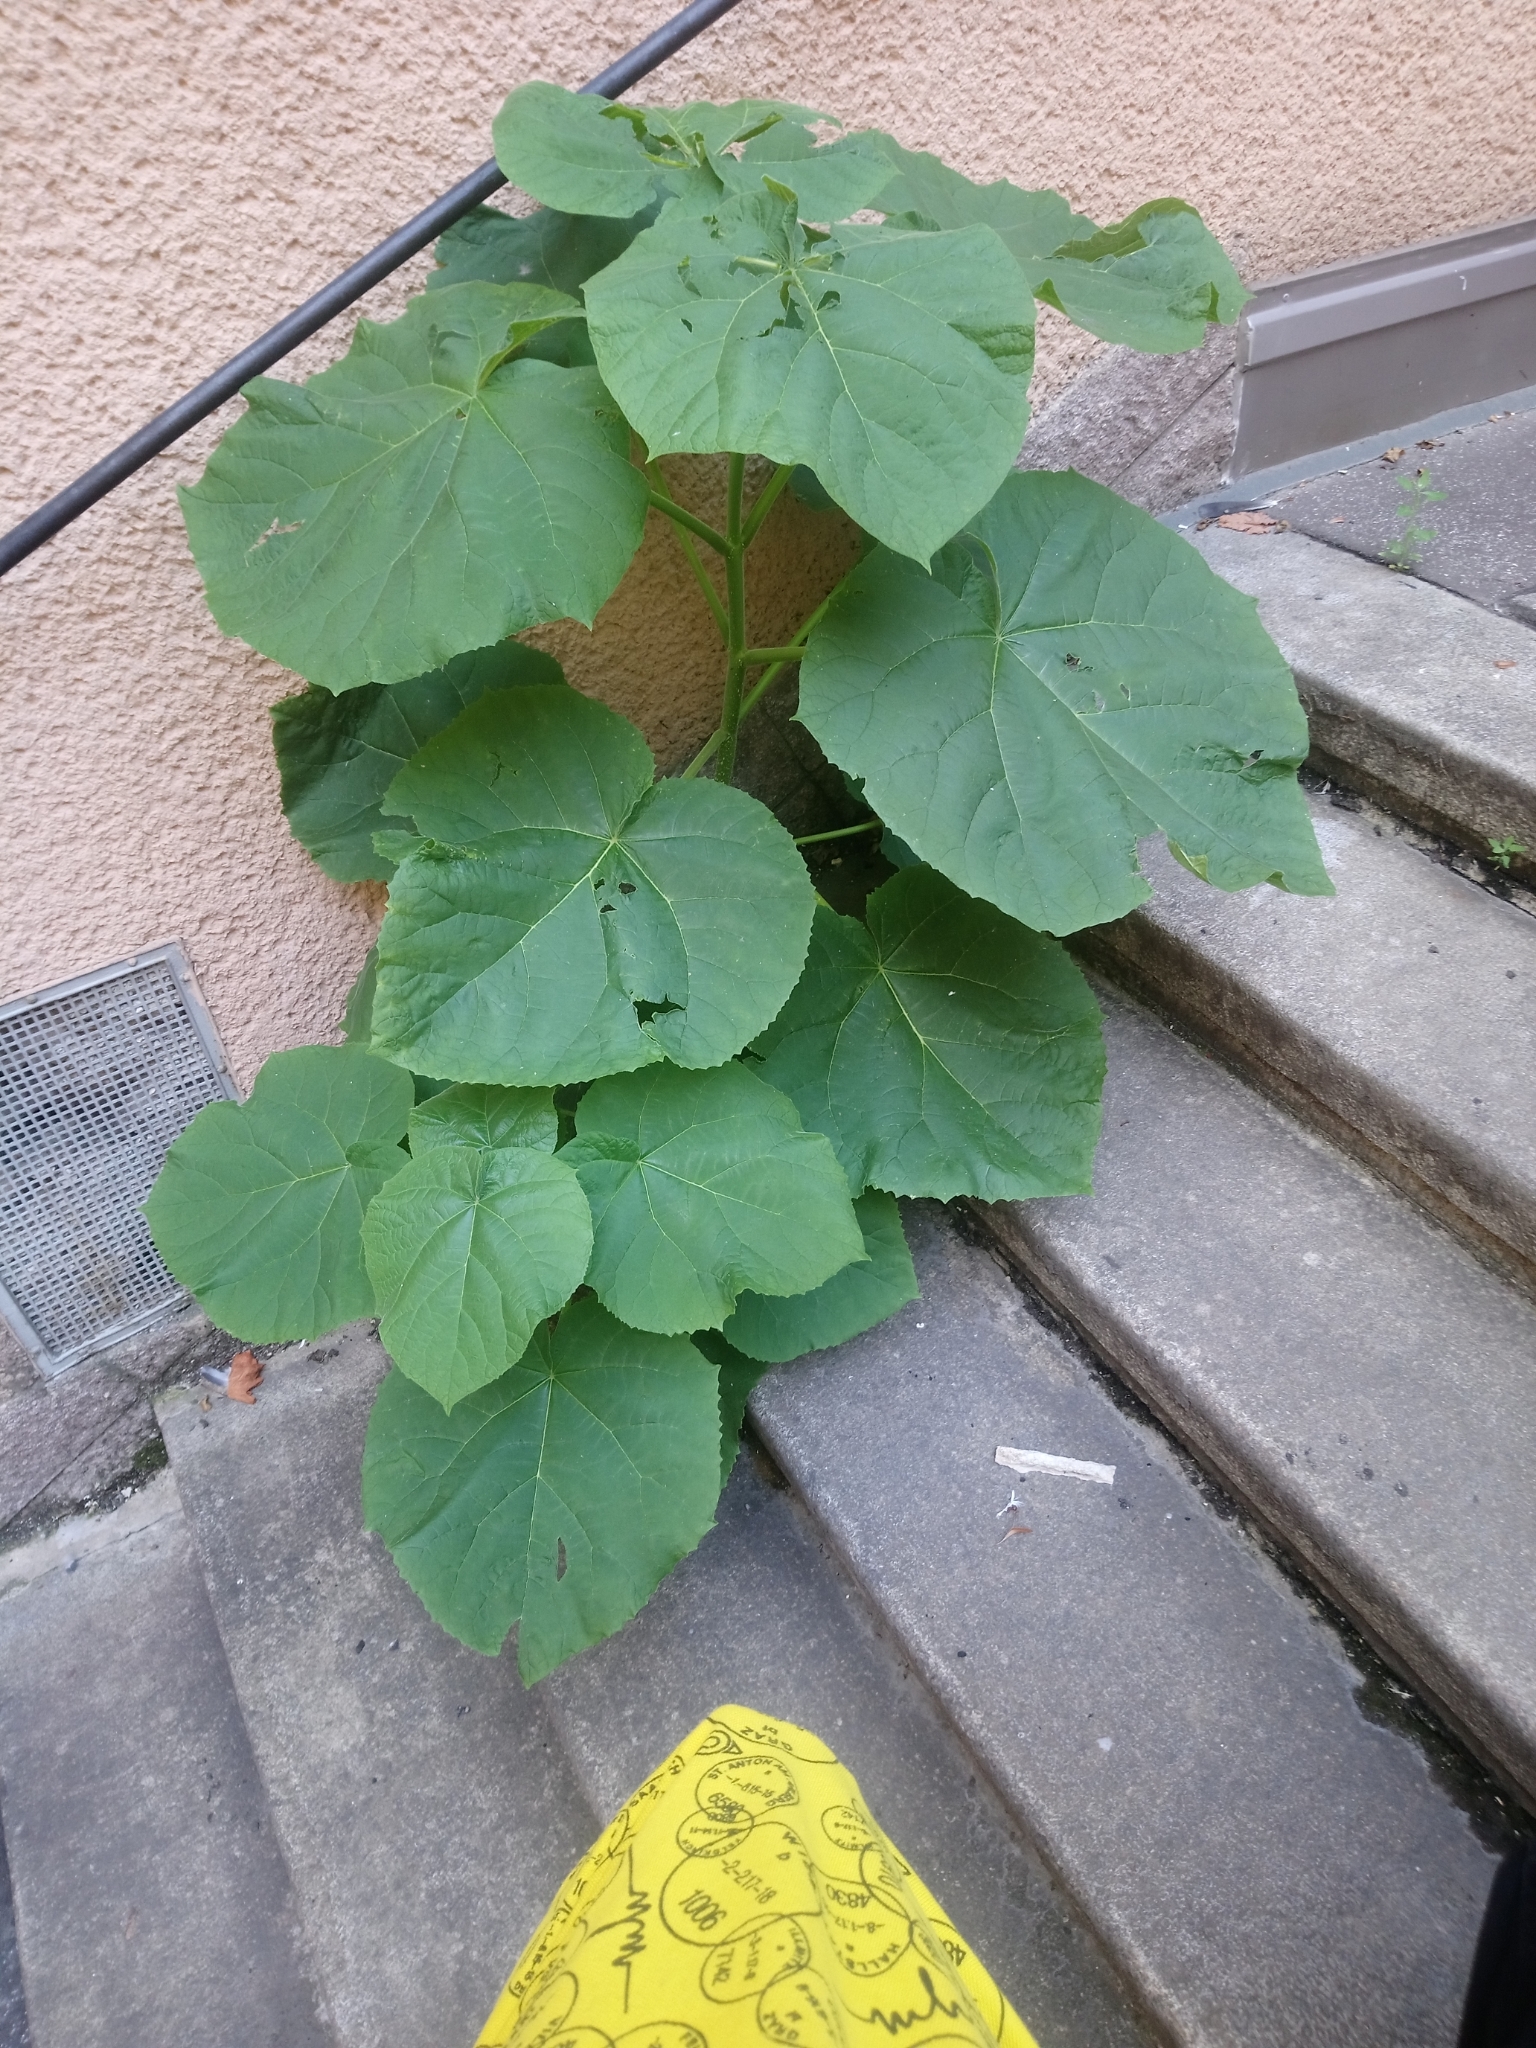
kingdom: Plantae
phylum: Tracheophyta
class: Magnoliopsida
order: Lamiales
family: Paulowniaceae
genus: Paulownia
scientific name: Paulownia tomentosa
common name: Foxglove-tree
